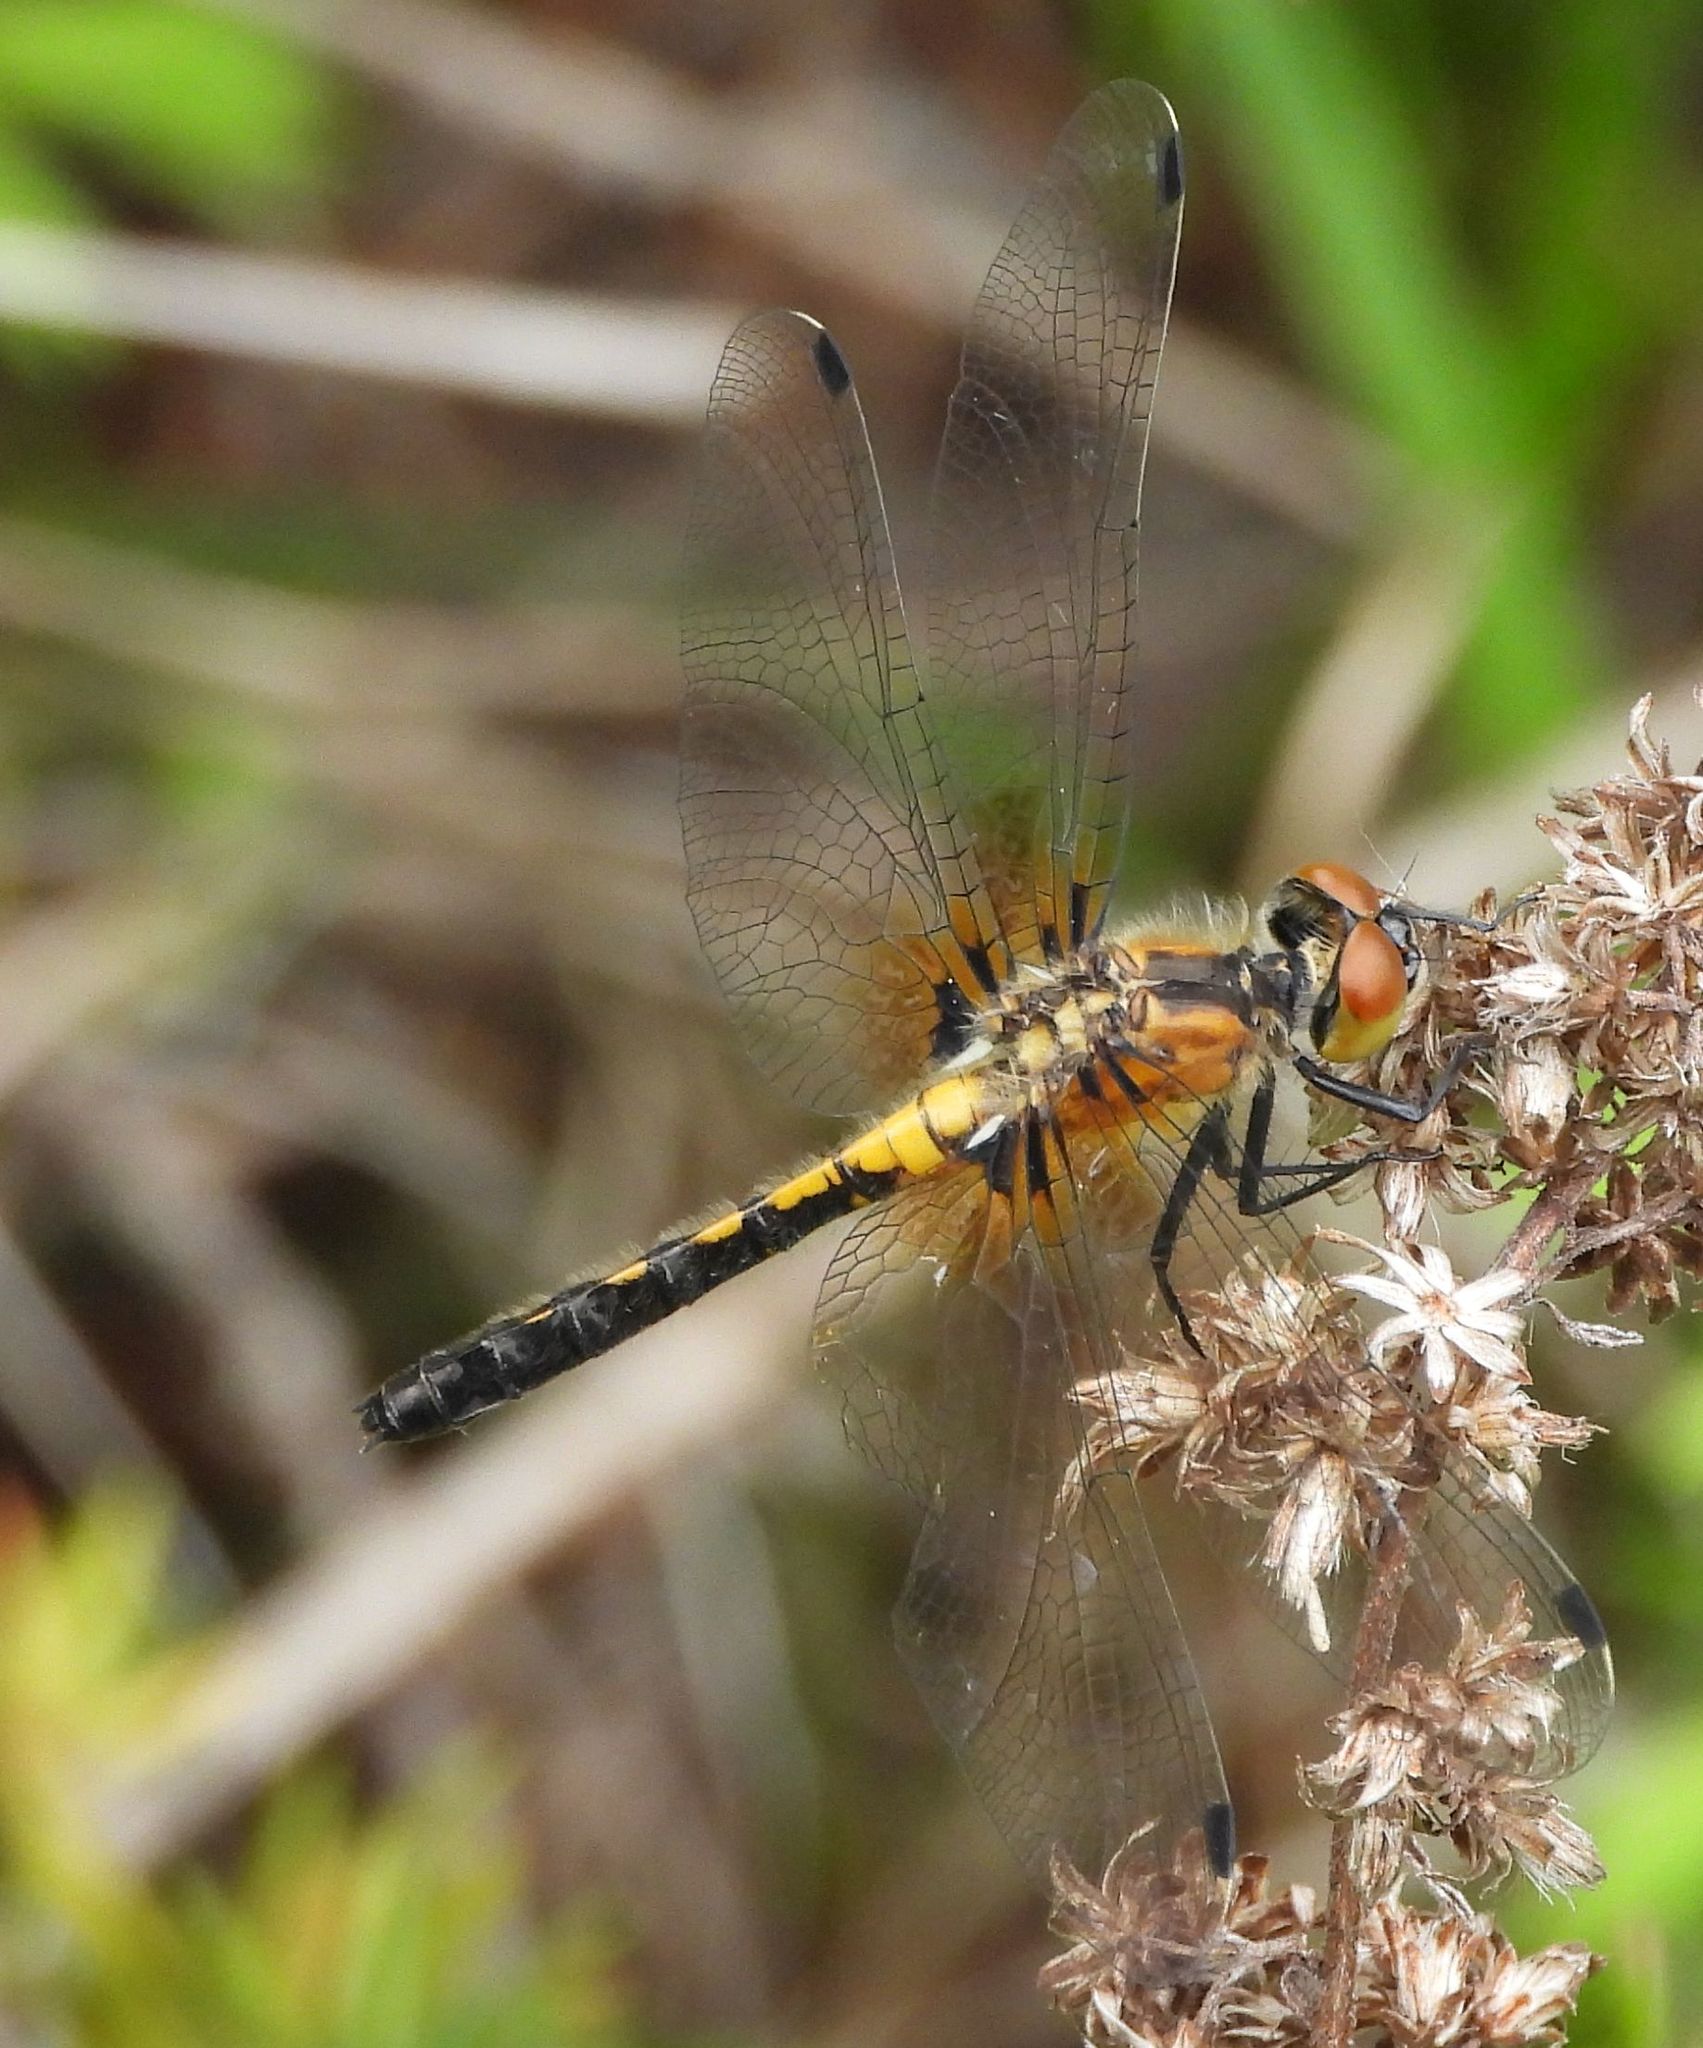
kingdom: Animalia
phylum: Arthropoda
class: Insecta
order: Odonata
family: Libellulidae
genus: Leucorrhinia
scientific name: Leucorrhinia frigida
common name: Frosted whiteface
